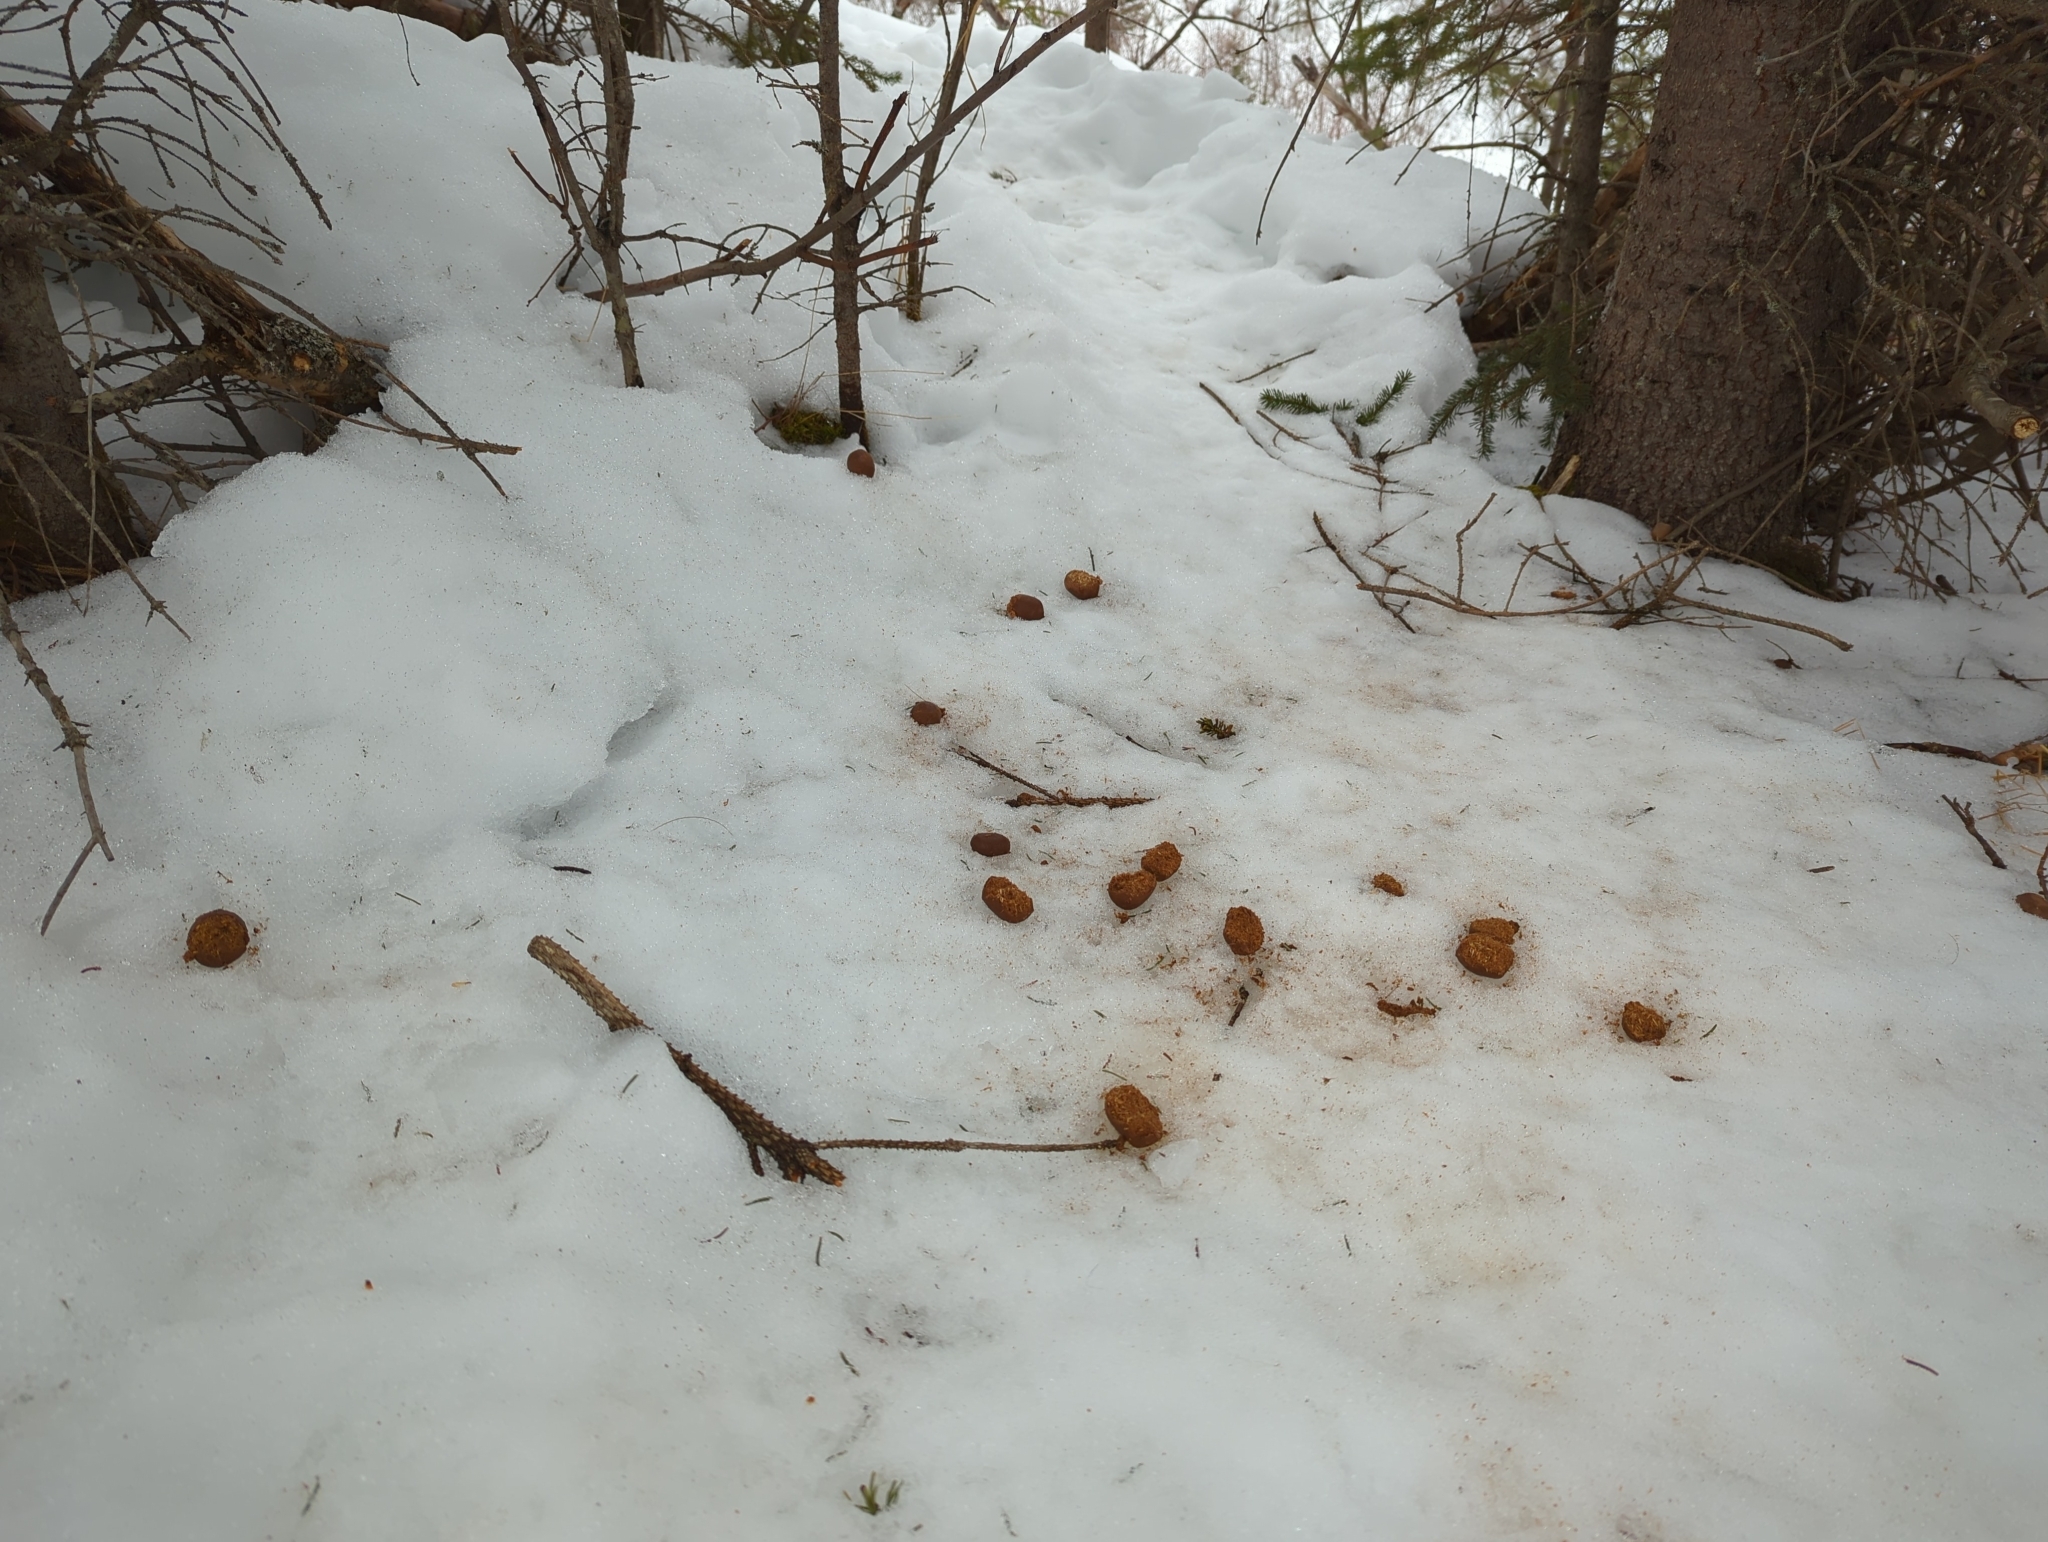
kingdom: Animalia
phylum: Chordata
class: Mammalia
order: Artiodactyla
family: Cervidae
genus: Alces
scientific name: Alces alces
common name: Moose
